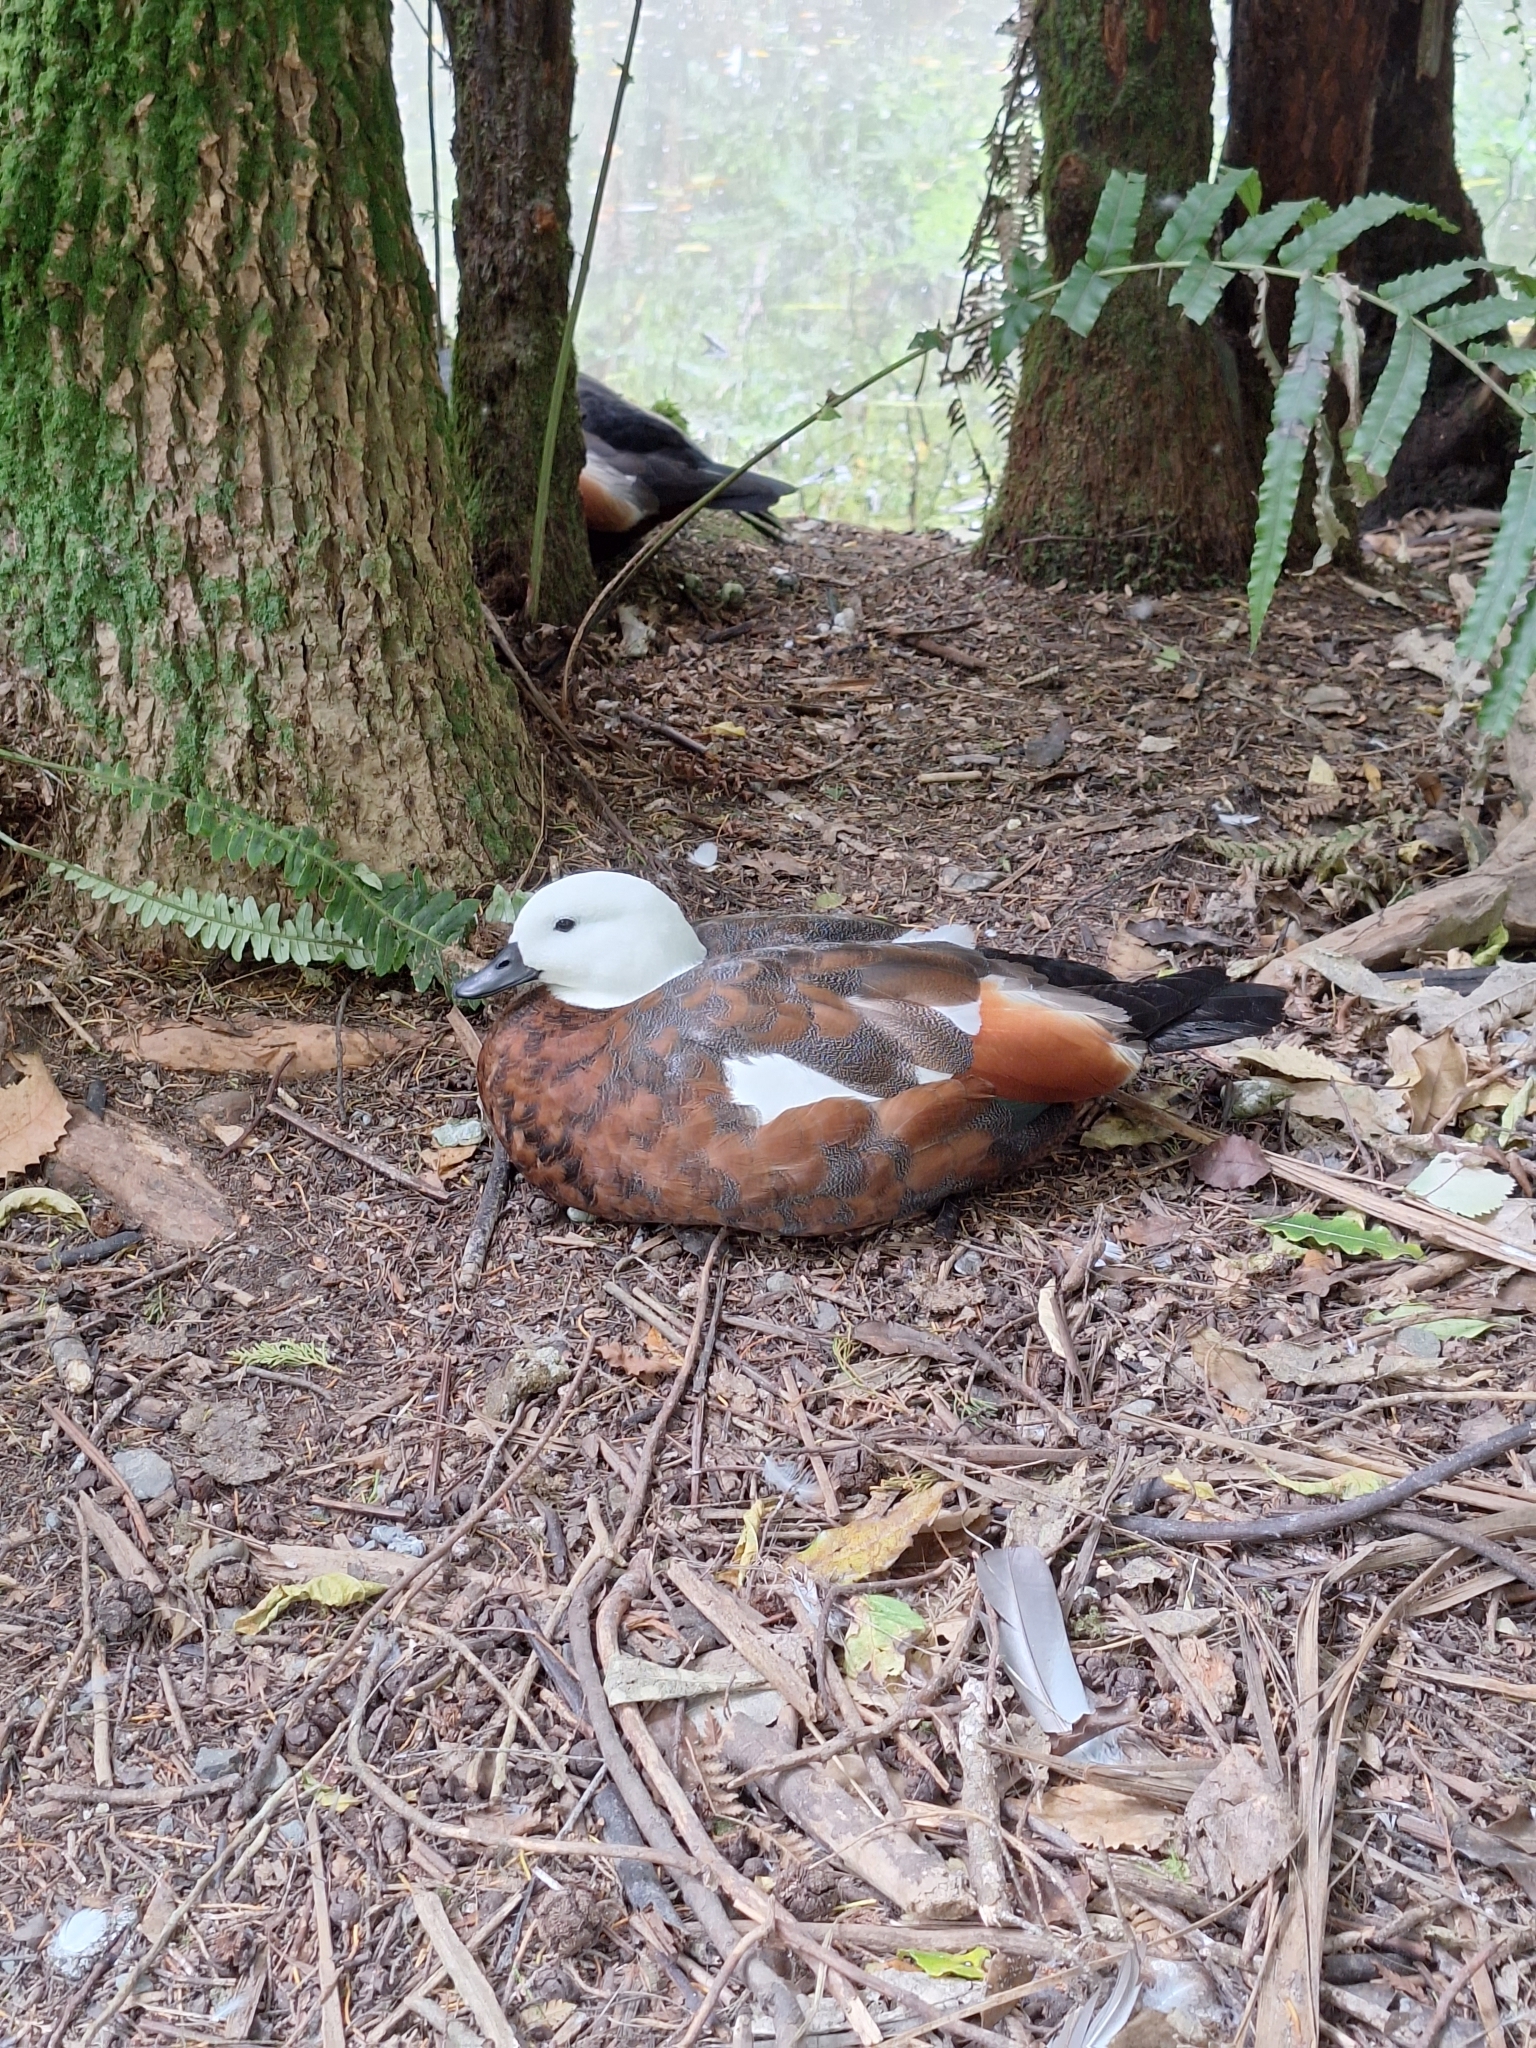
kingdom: Animalia
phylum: Chordata
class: Aves
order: Anseriformes
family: Anatidae
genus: Tadorna
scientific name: Tadorna variegata
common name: Paradise shelduck
